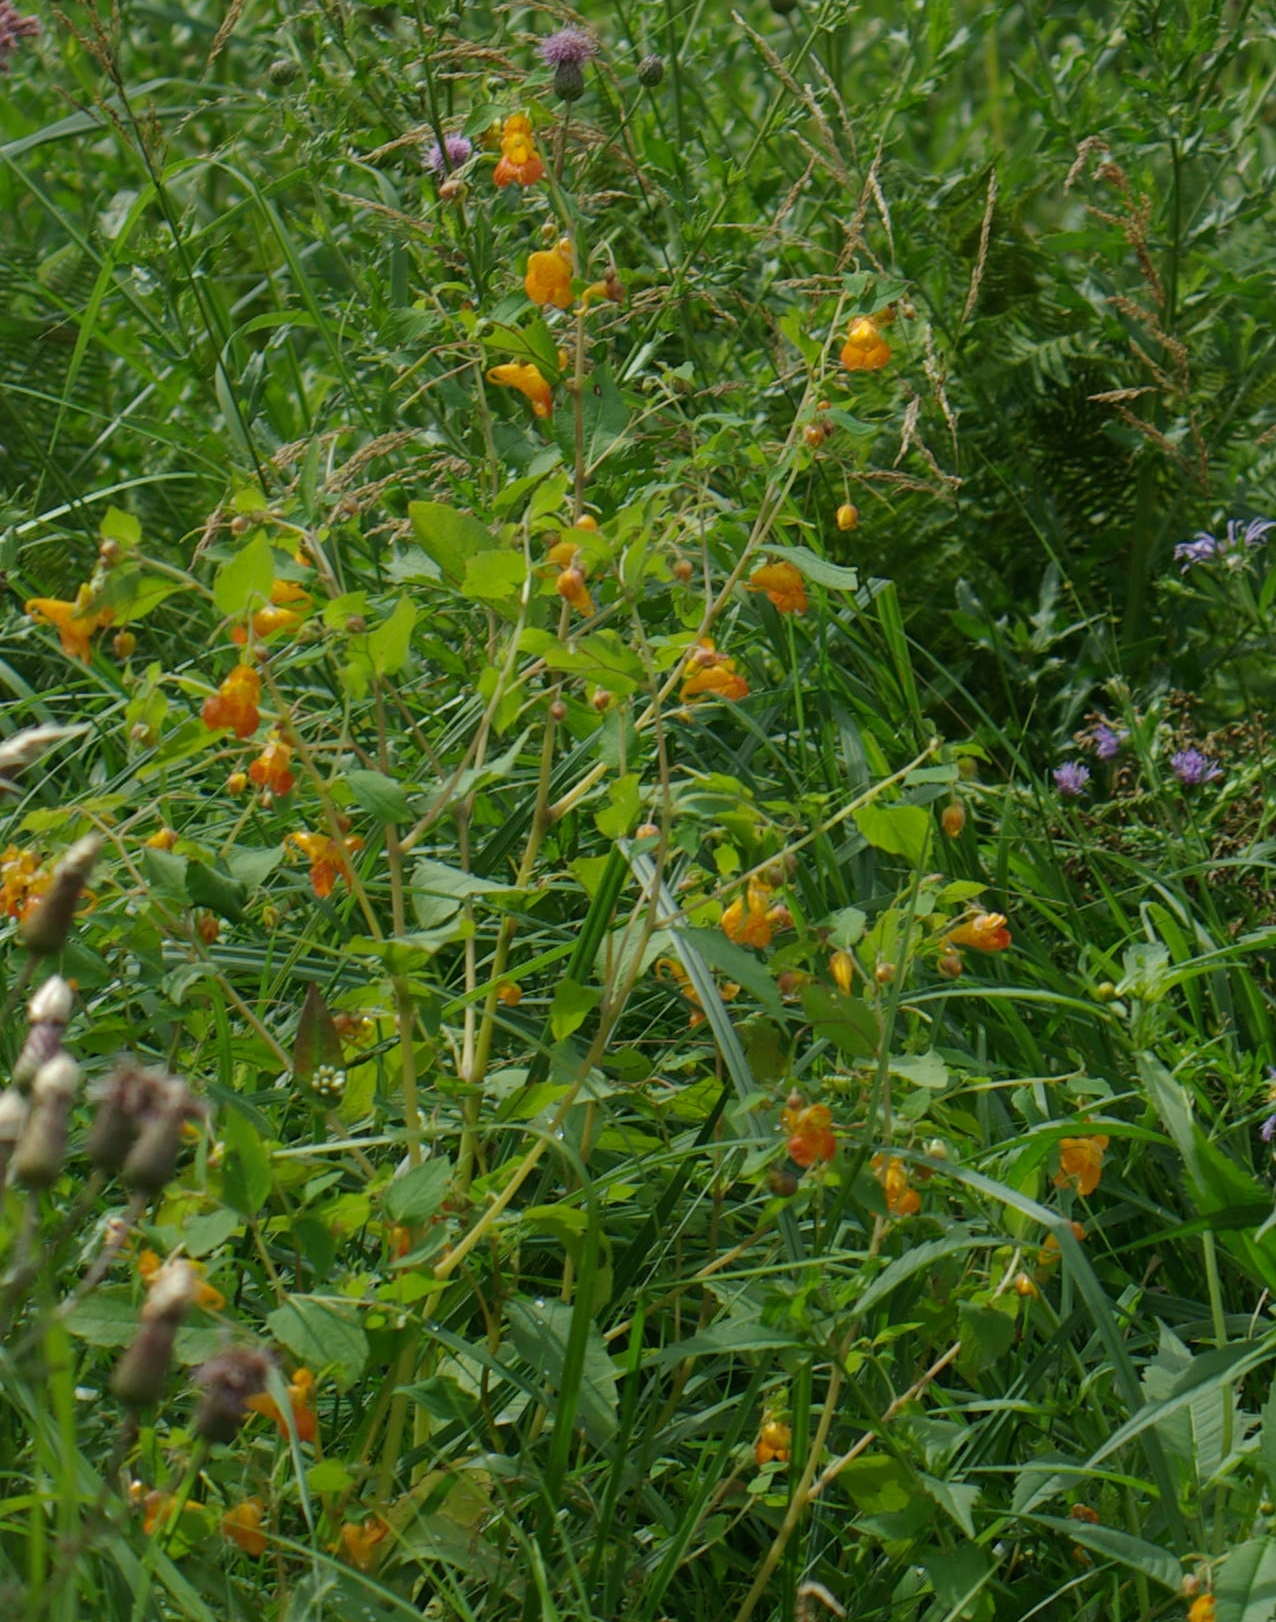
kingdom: Plantae
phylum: Tracheophyta
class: Magnoliopsida
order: Ericales
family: Balsaminaceae
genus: Impatiens
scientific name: Impatiens capensis
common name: Orange balsam
